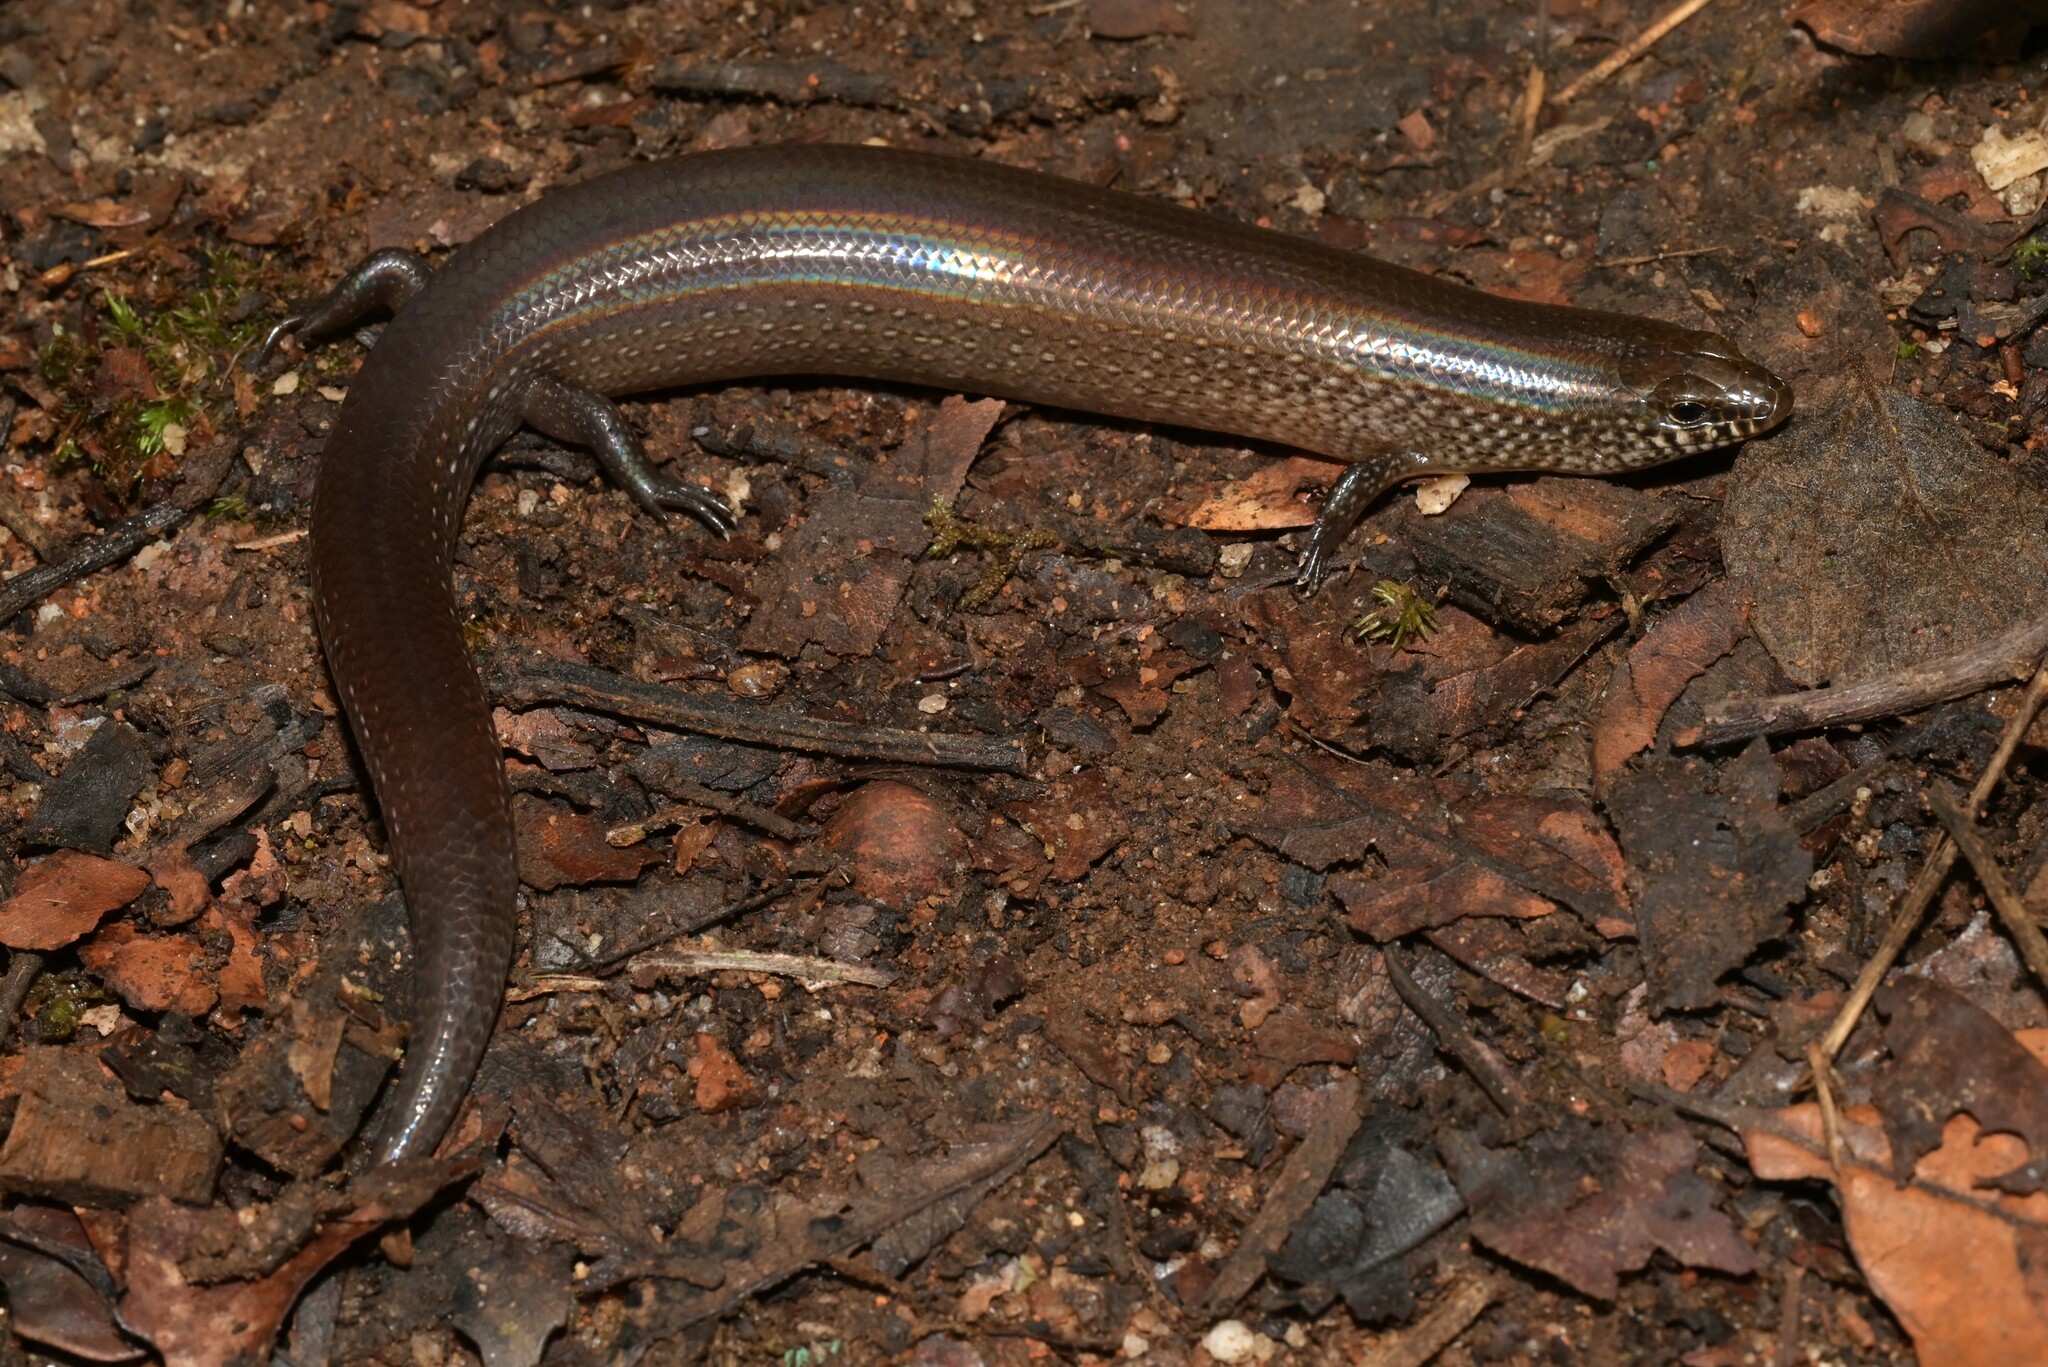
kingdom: Animalia
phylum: Chordata
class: Squamata
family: Scincidae
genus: Mochlus
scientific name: Mochlus sundevallii
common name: Peters' eyelid skink
